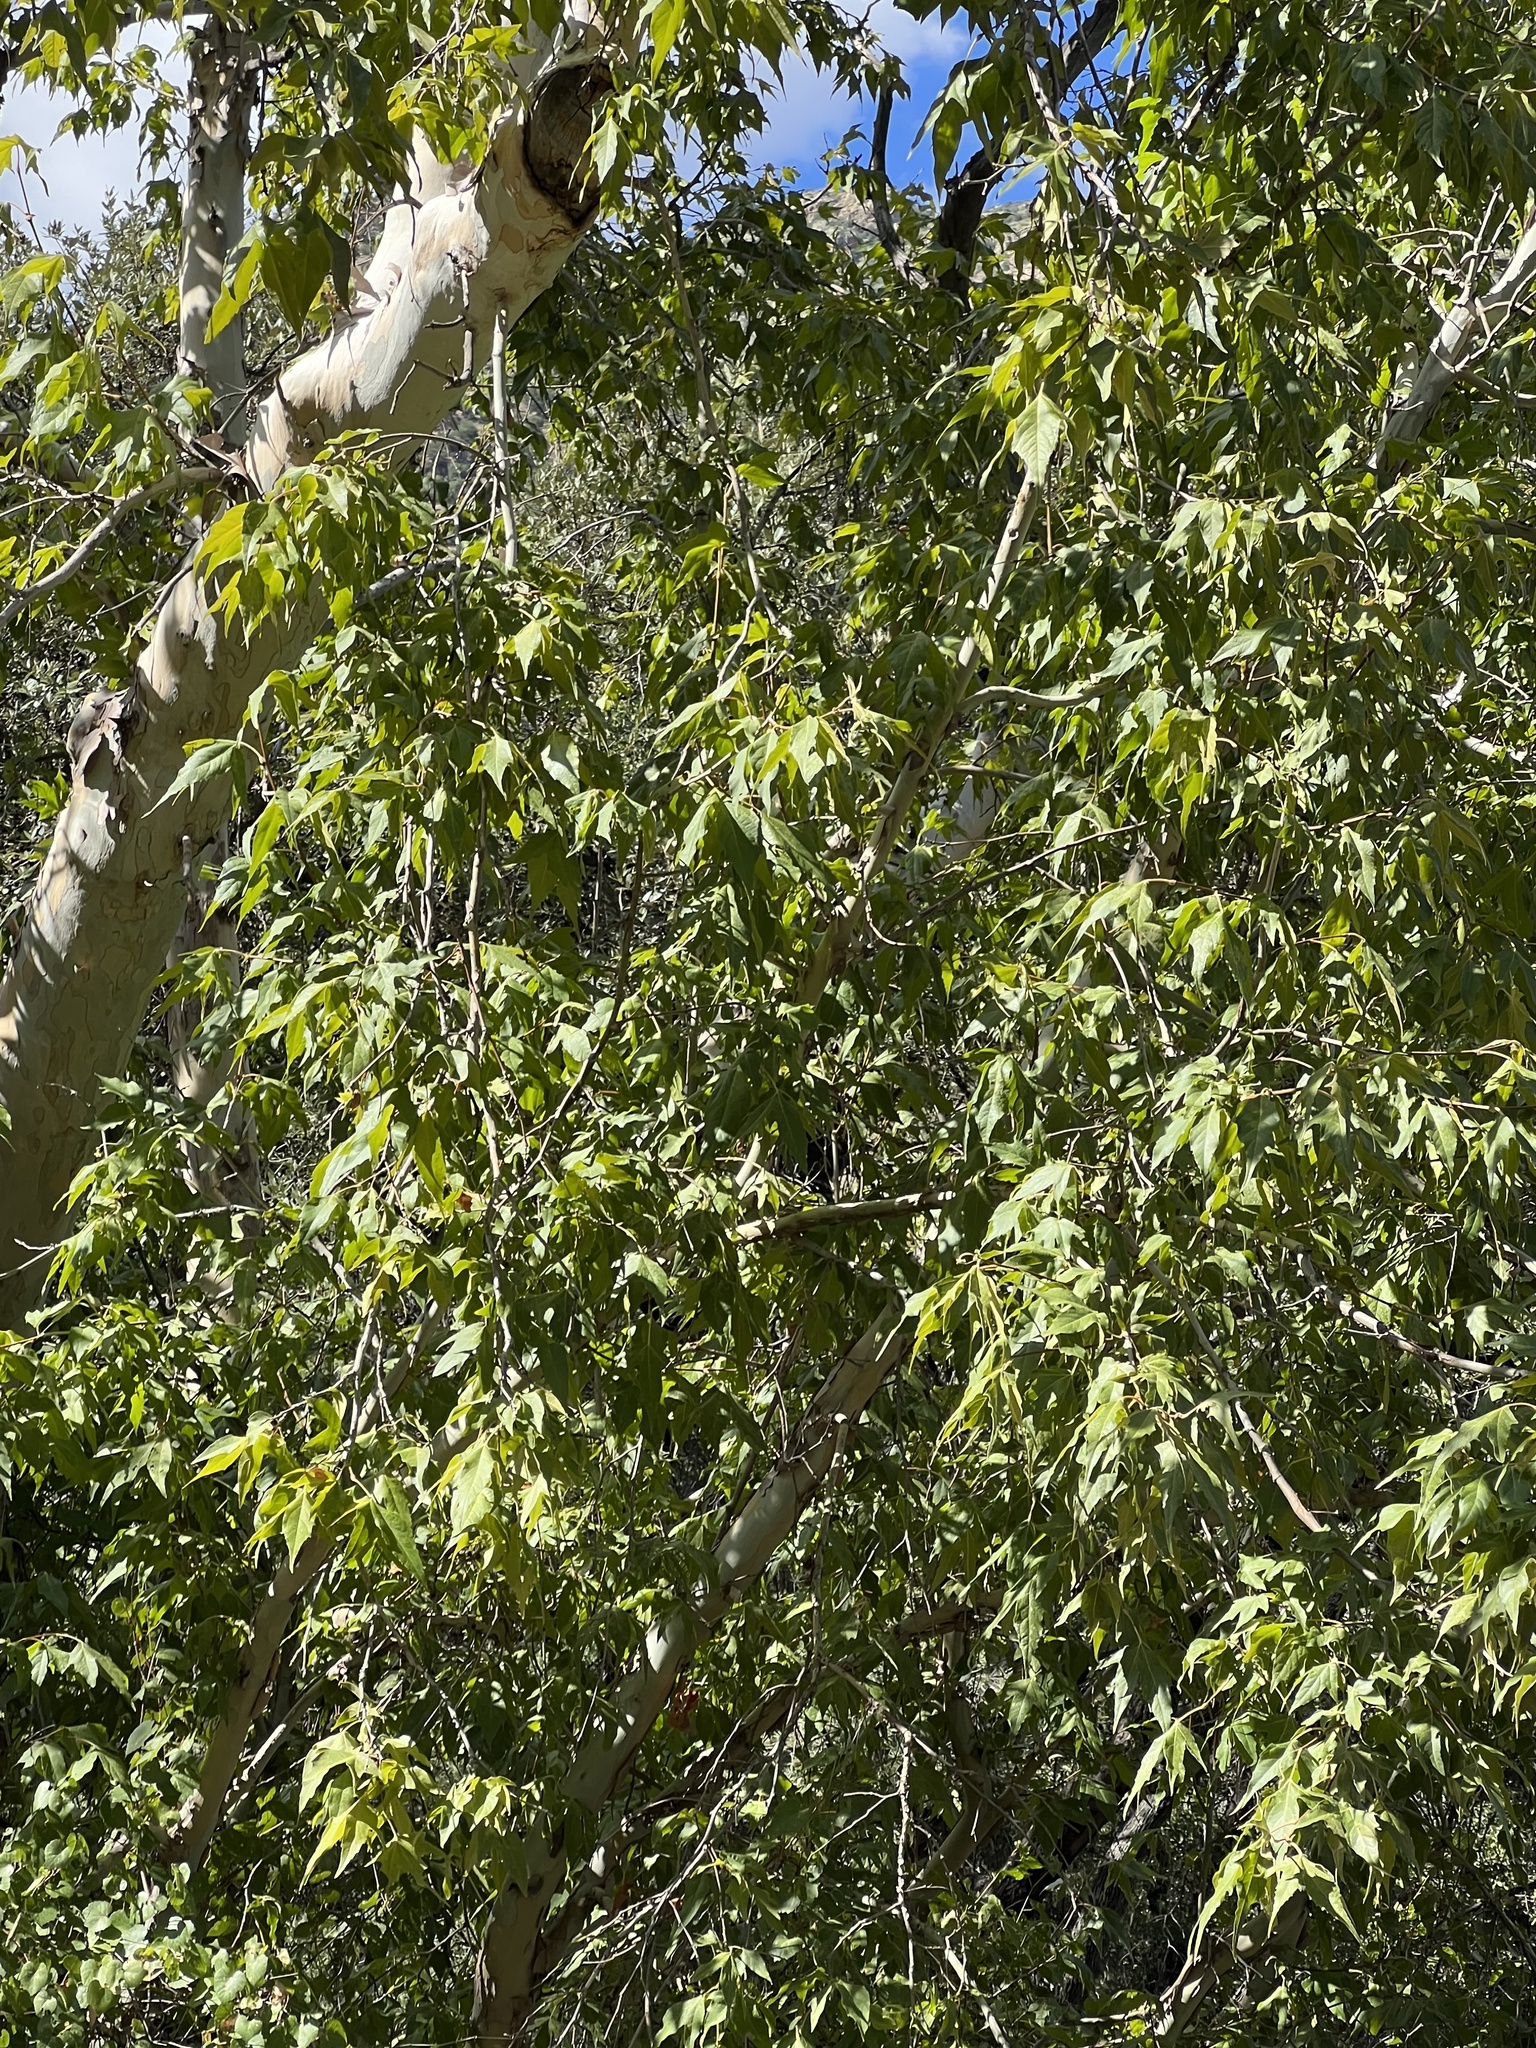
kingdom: Plantae
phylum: Tracheophyta
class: Magnoliopsida
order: Proteales
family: Platanaceae
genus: Platanus
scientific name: Platanus wrightii
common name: Arizona sycamore
